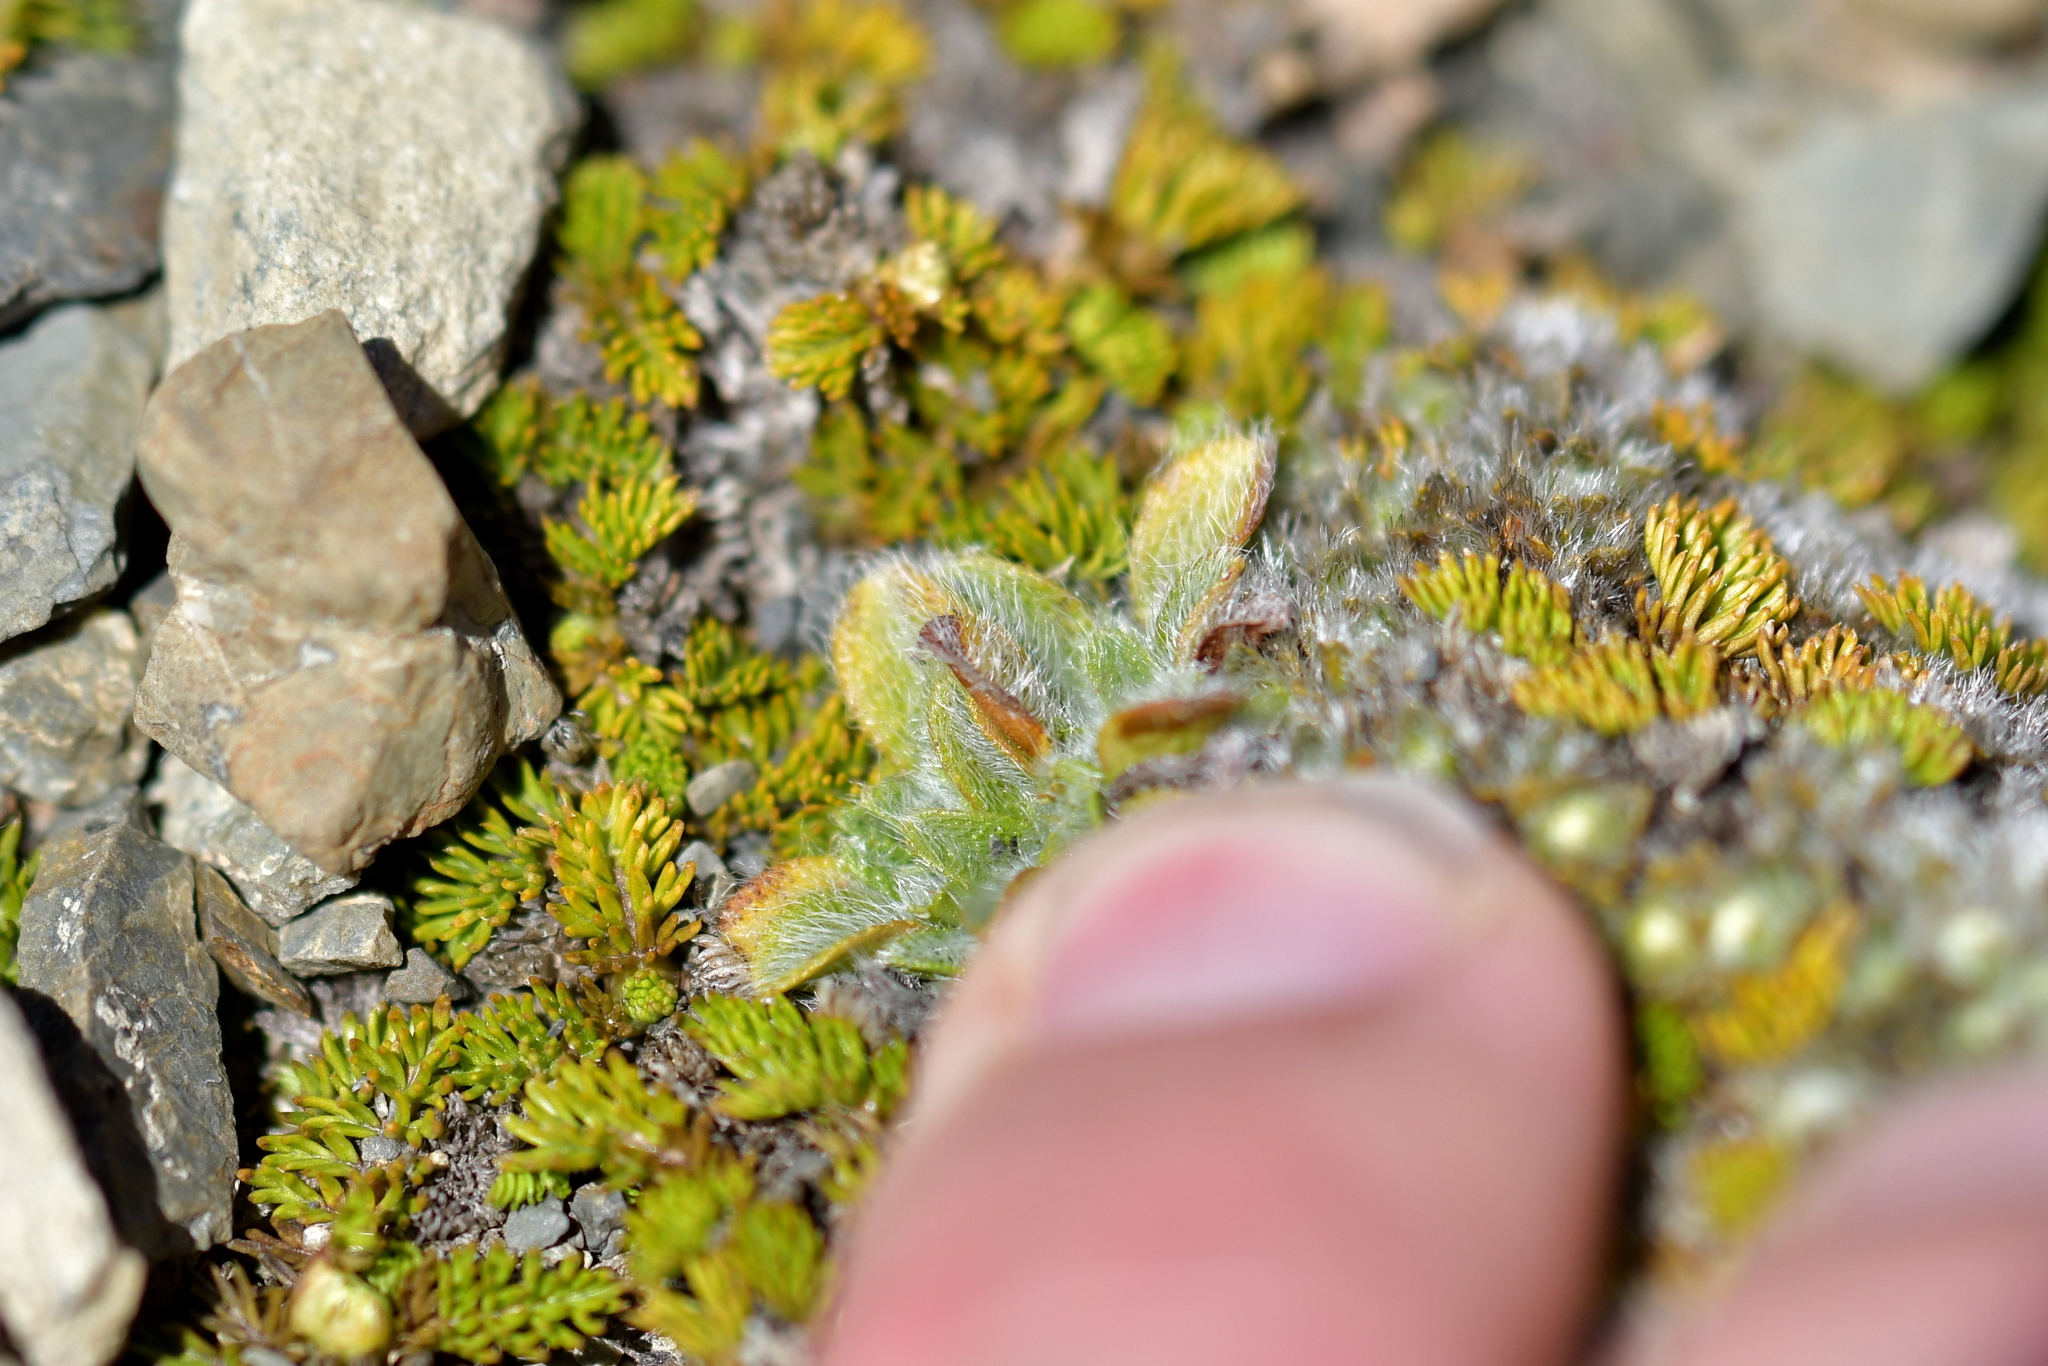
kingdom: Plantae
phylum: Tracheophyta
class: Magnoliopsida
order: Lamiales
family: Plantaginaceae
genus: Plantago
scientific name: Plantago lanigera
